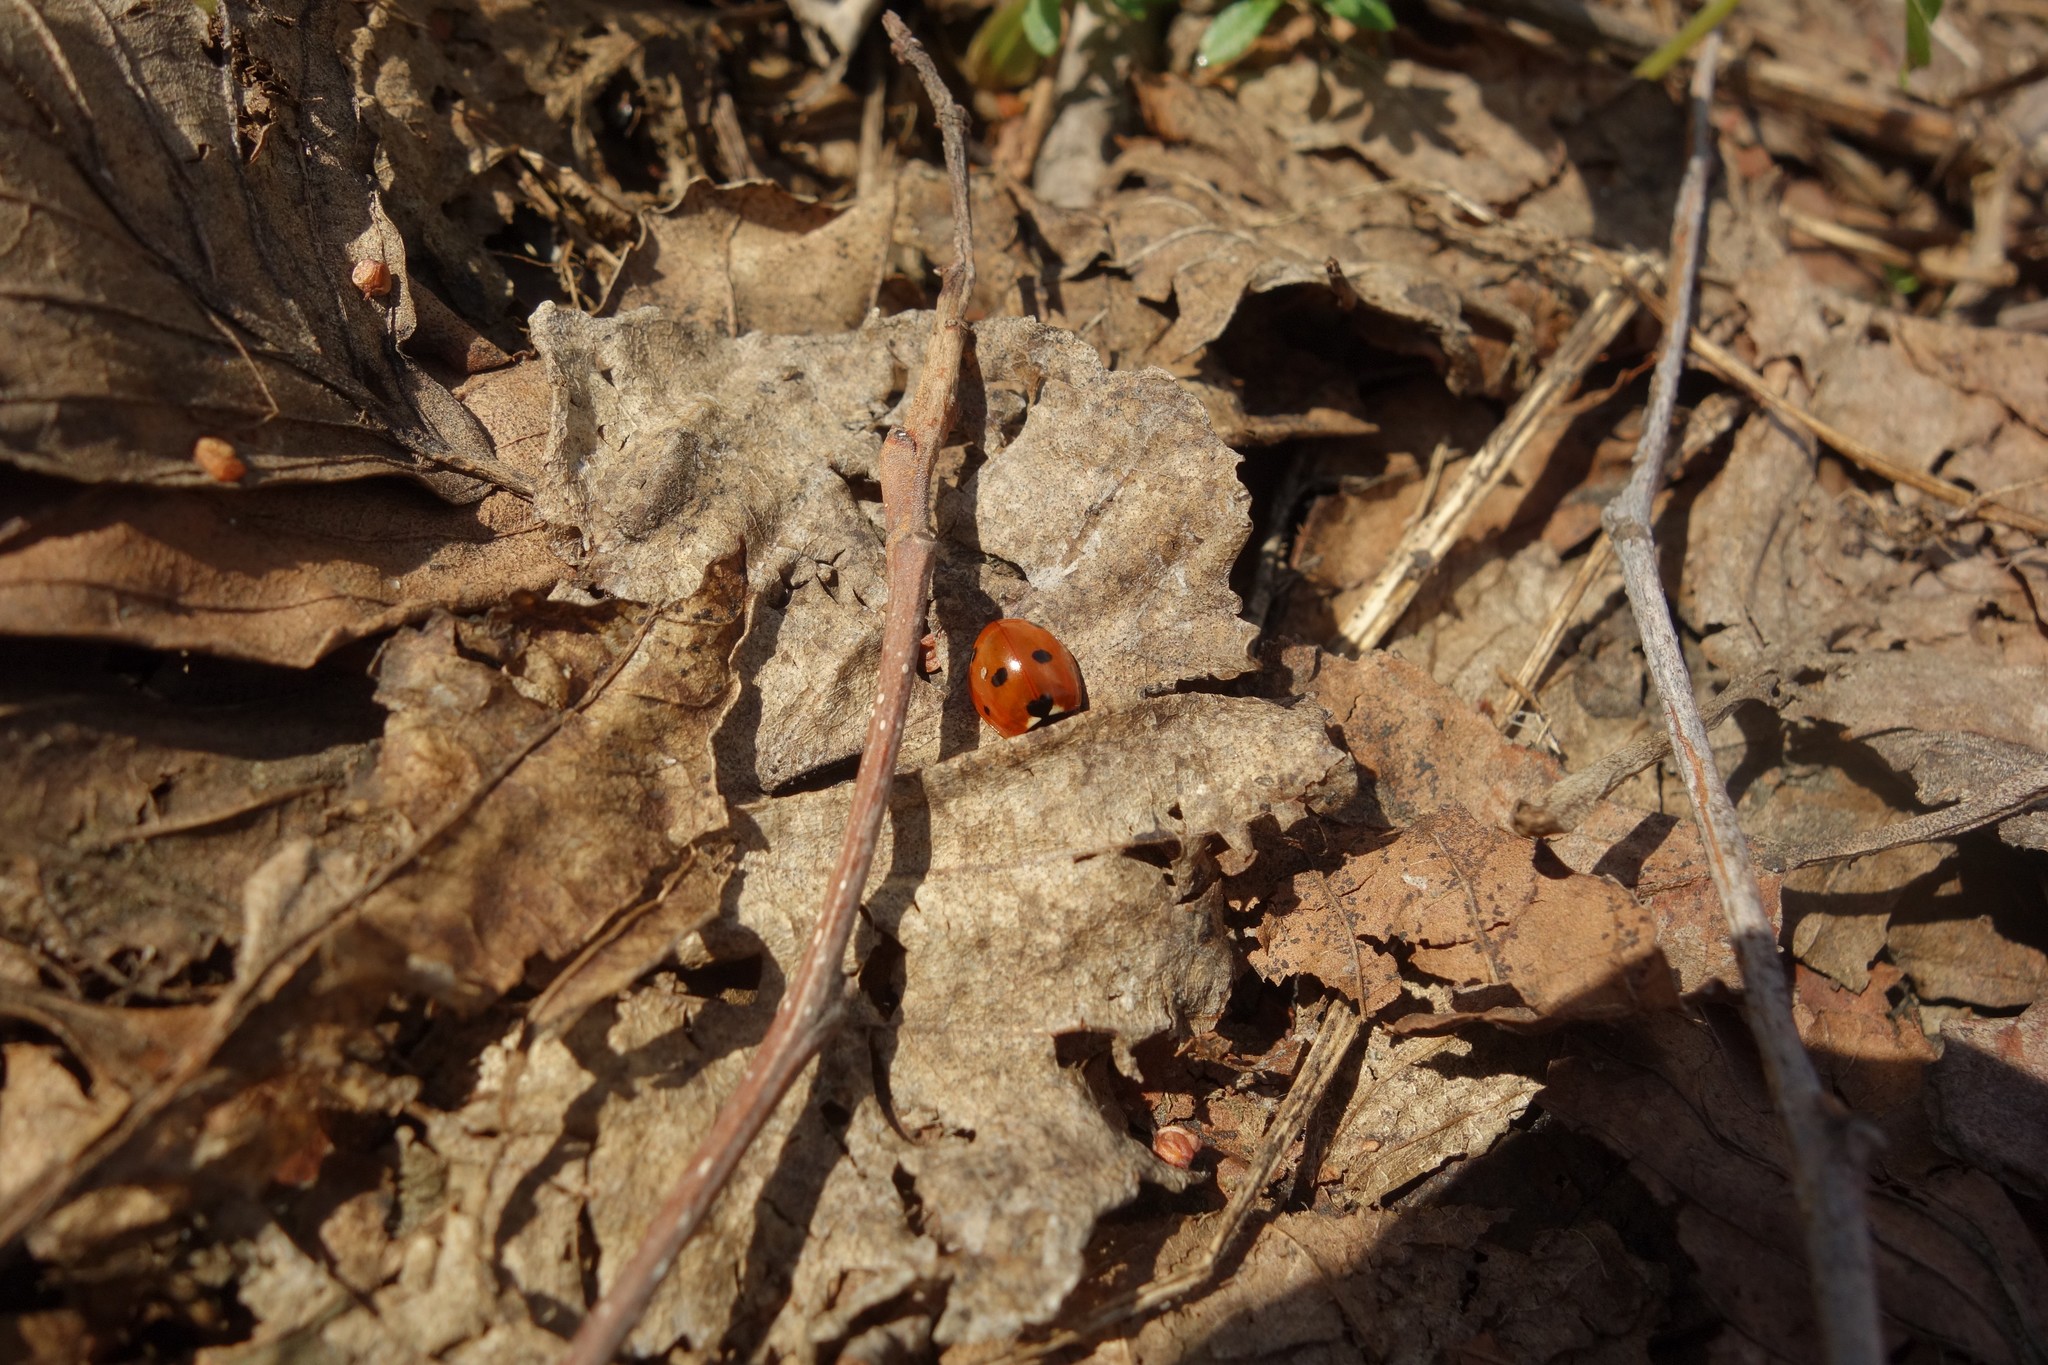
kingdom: Animalia
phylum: Arthropoda
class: Insecta
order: Coleoptera
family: Coccinellidae
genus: Coccinella
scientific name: Coccinella septempunctata
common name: Sevenspotted lady beetle
